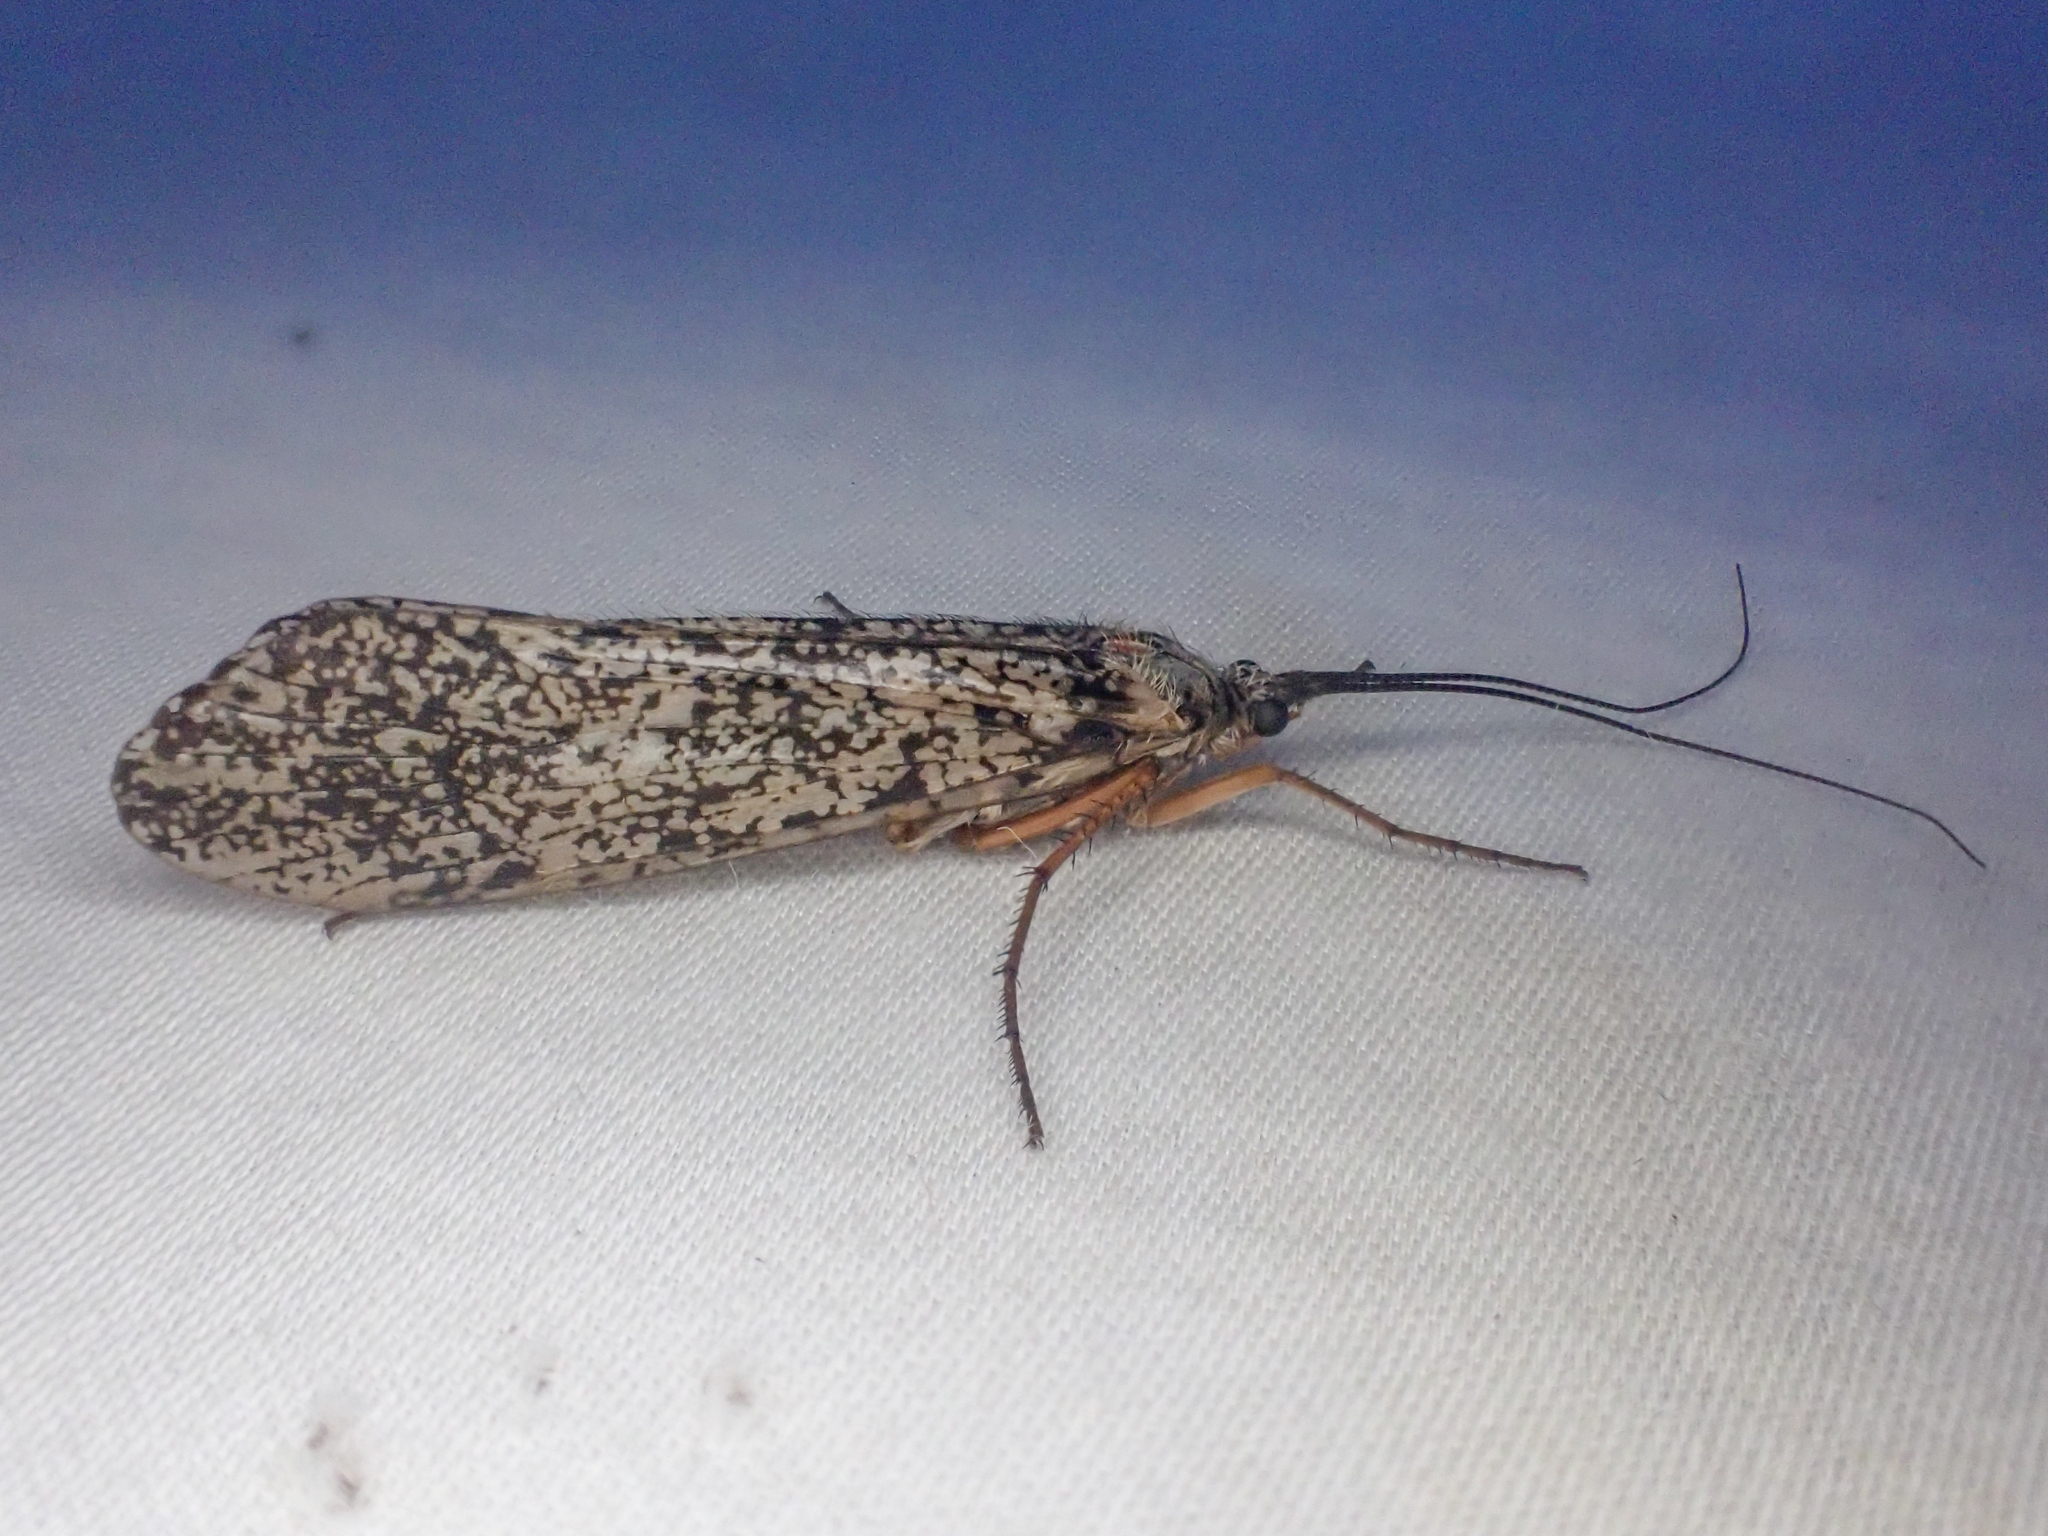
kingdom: Animalia
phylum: Arthropoda
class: Insecta
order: Trichoptera
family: Limnephilidae
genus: Clistoronia
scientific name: Clistoronia magnifica
